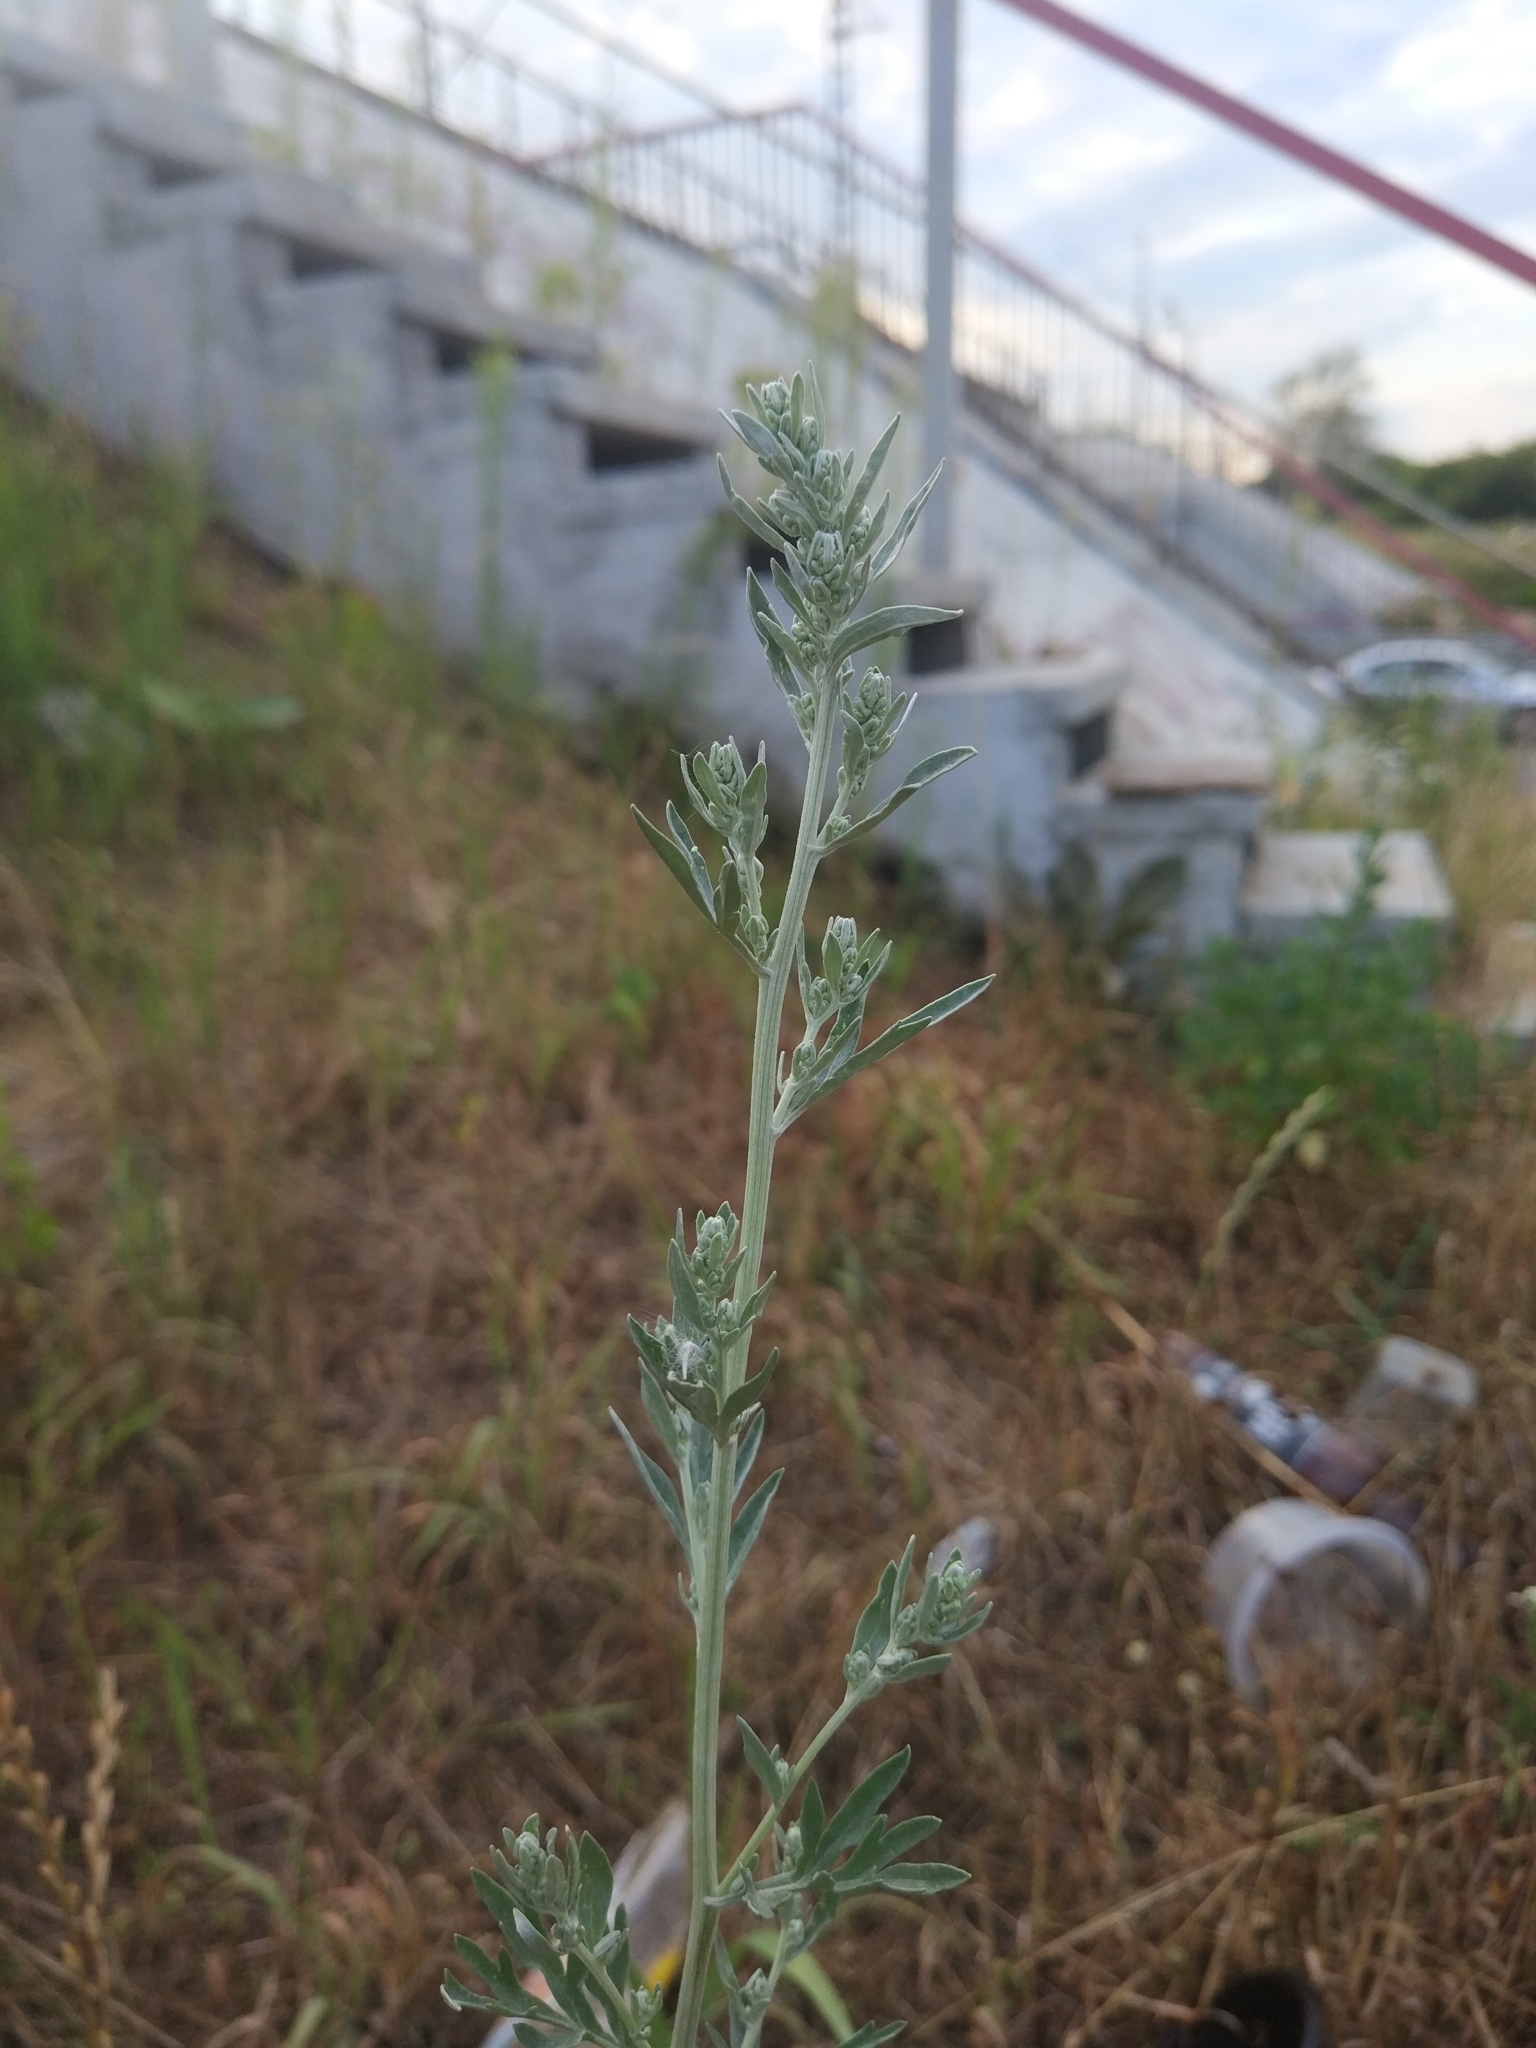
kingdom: Plantae
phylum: Tracheophyta
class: Magnoliopsida
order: Asterales
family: Asteraceae
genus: Artemisia
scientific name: Artemisia absinthium
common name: Wormwood
